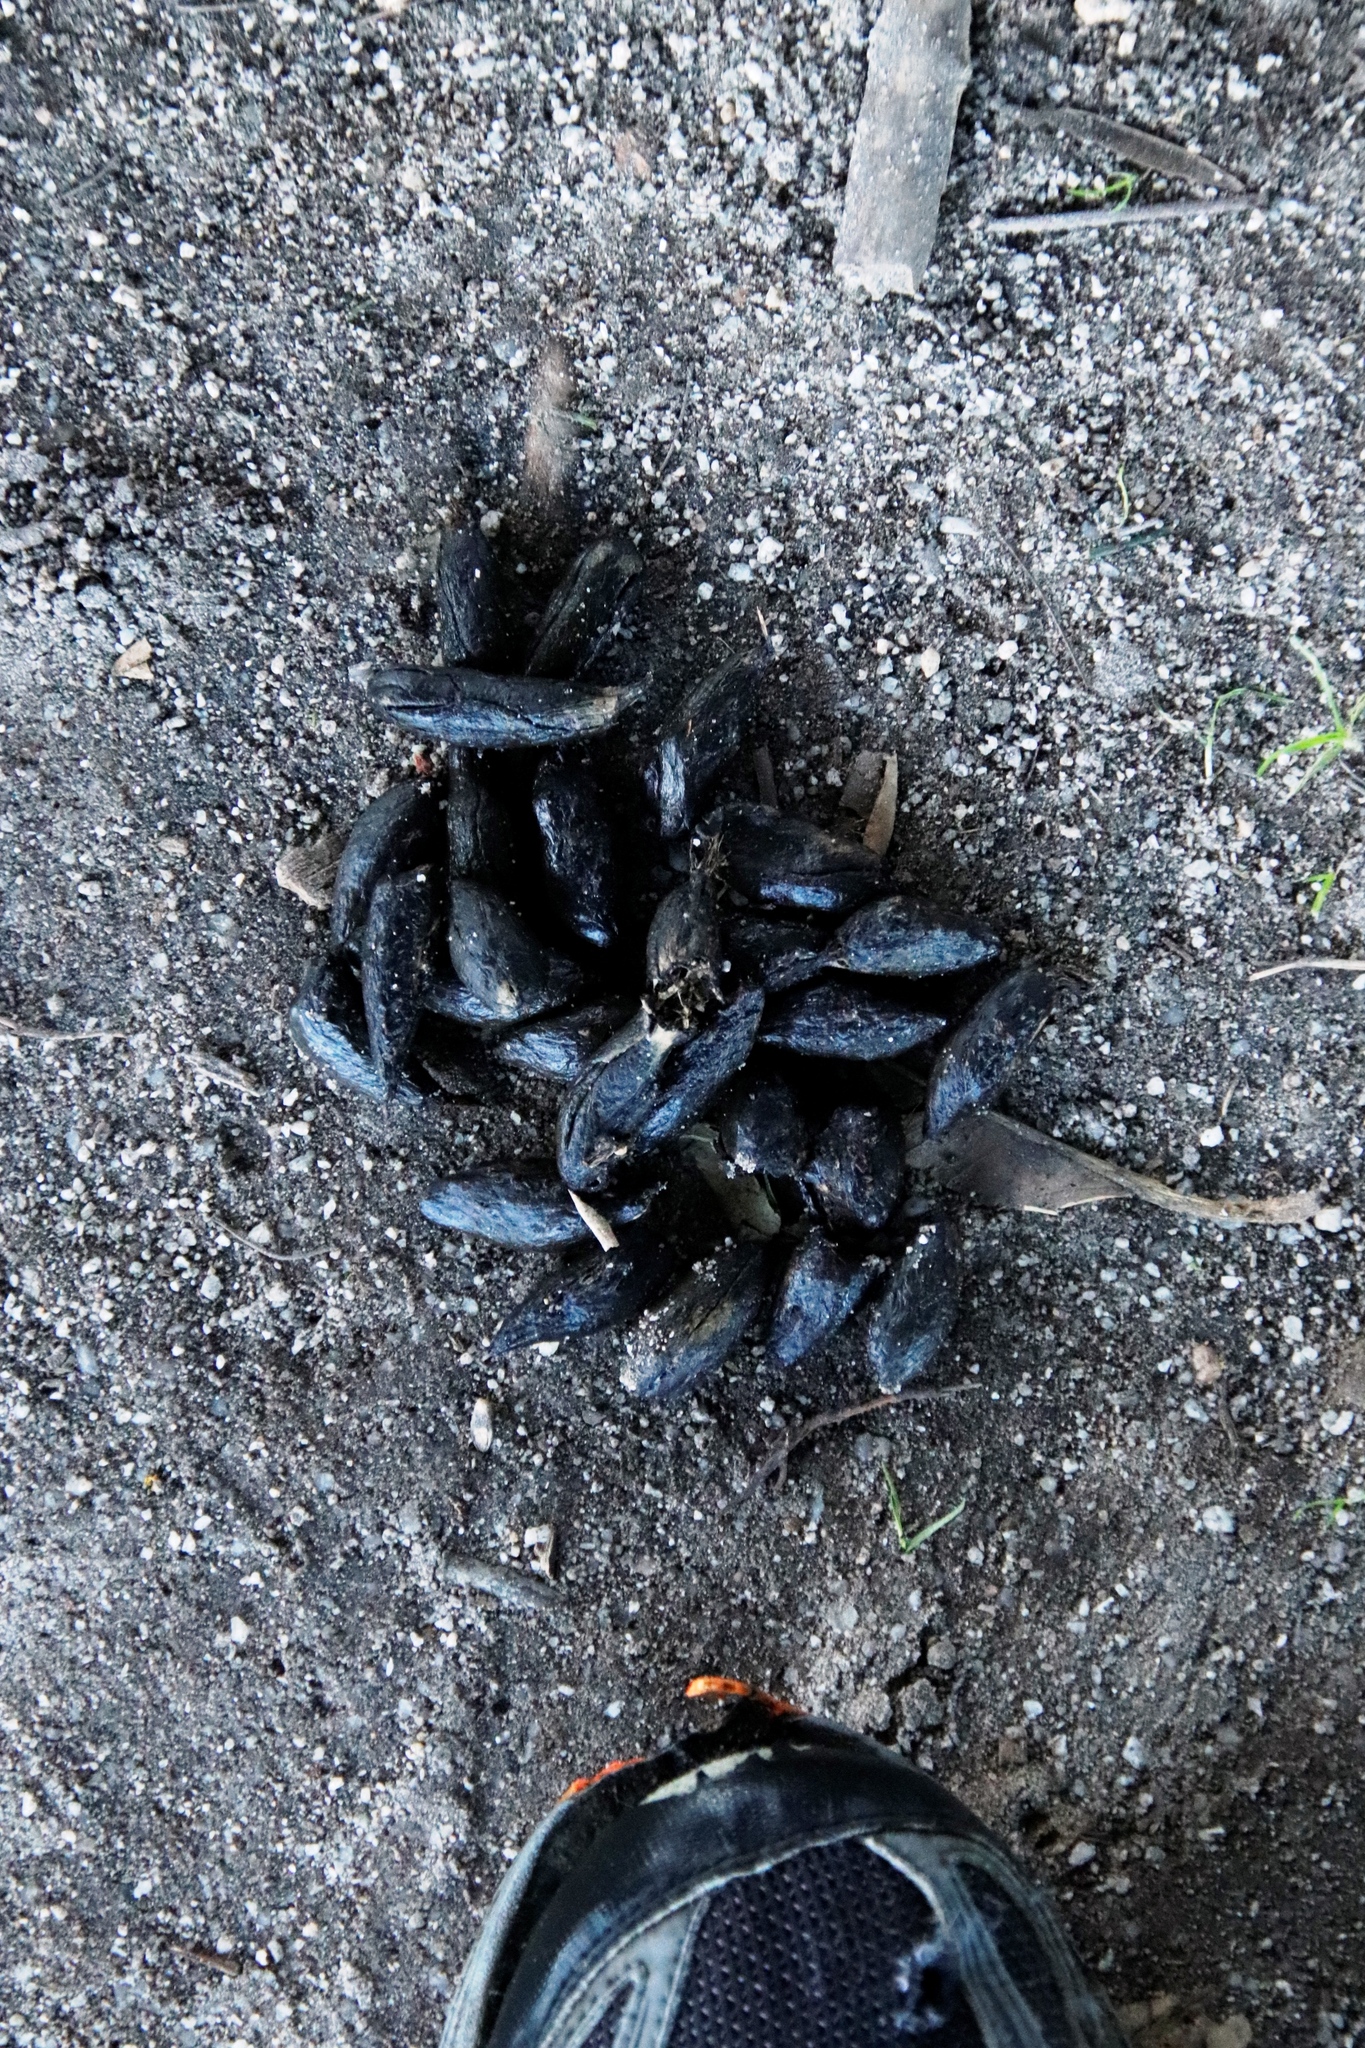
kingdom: Animalia
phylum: Chordata
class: Mammalia
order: Rodentia
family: Hystricidae
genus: Hystrix
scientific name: Hystrix africaeaustralis
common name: Cape porcupine
